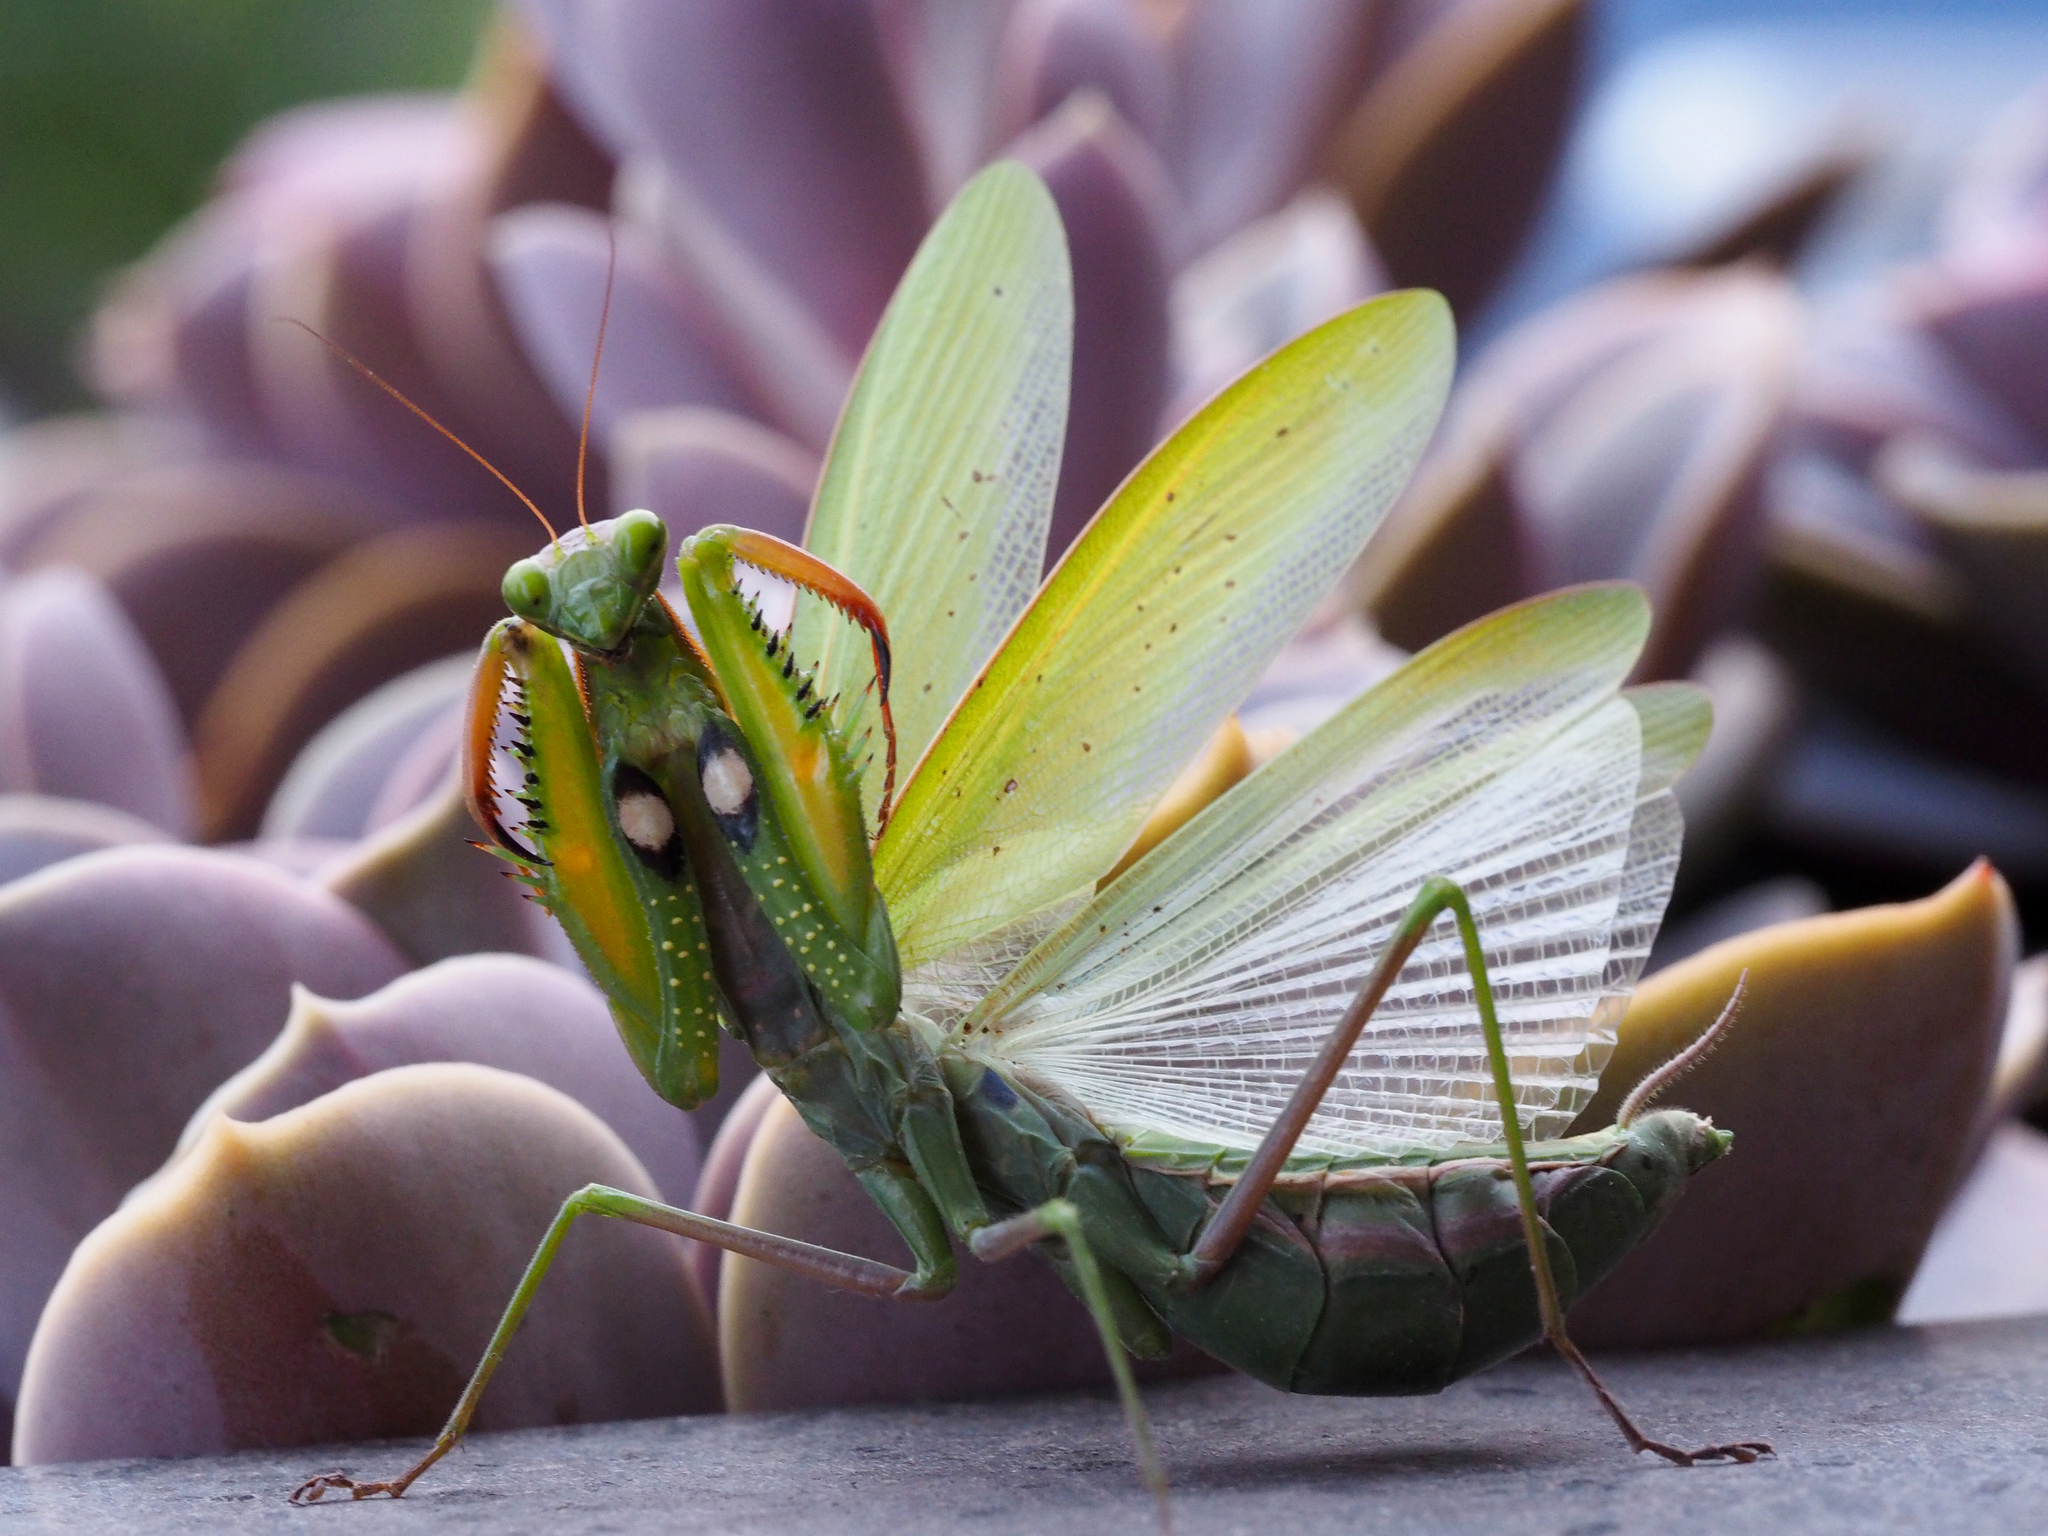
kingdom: Animalia
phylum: Arthropoda
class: Insecta
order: Mantodea
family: Mantidae
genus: Mantis
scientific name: Mantis religiosa
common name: Praying mantis
